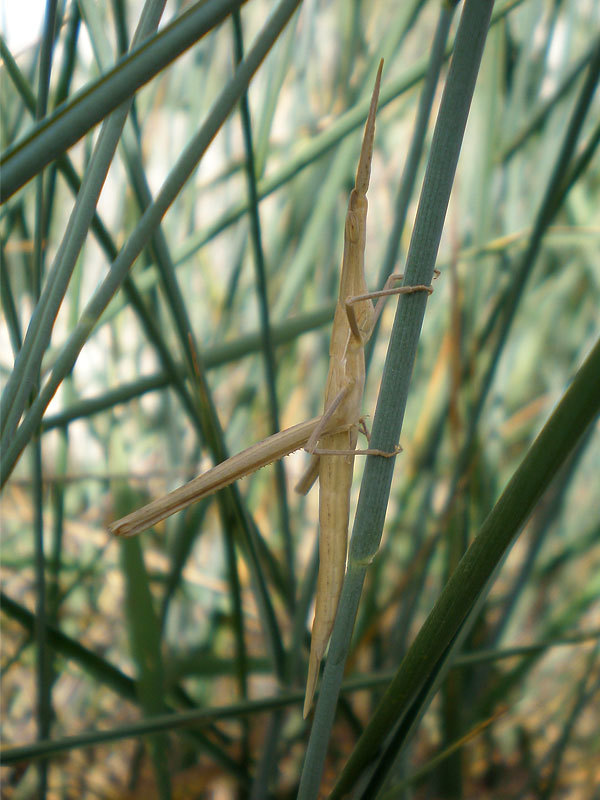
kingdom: Animalia
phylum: Arthropoda
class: Insecta
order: Orthoptera
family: Acrididae
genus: Truxalis
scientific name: Truxalis nasuta
